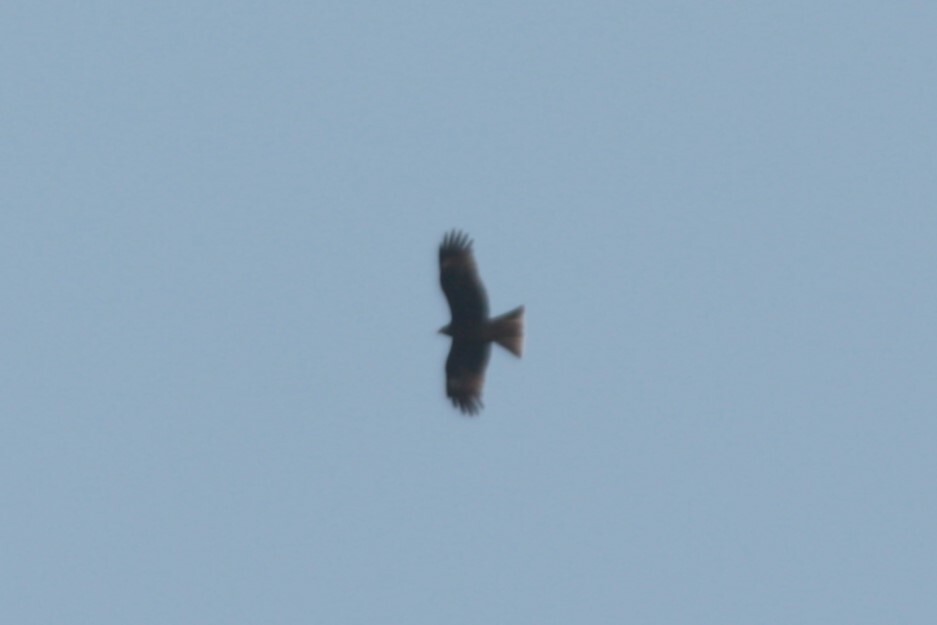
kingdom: Animalia
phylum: Chordata
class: Aves
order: Accipitriformes
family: Accipitridae
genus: Milvus
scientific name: Milvus migrans
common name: Black kite
